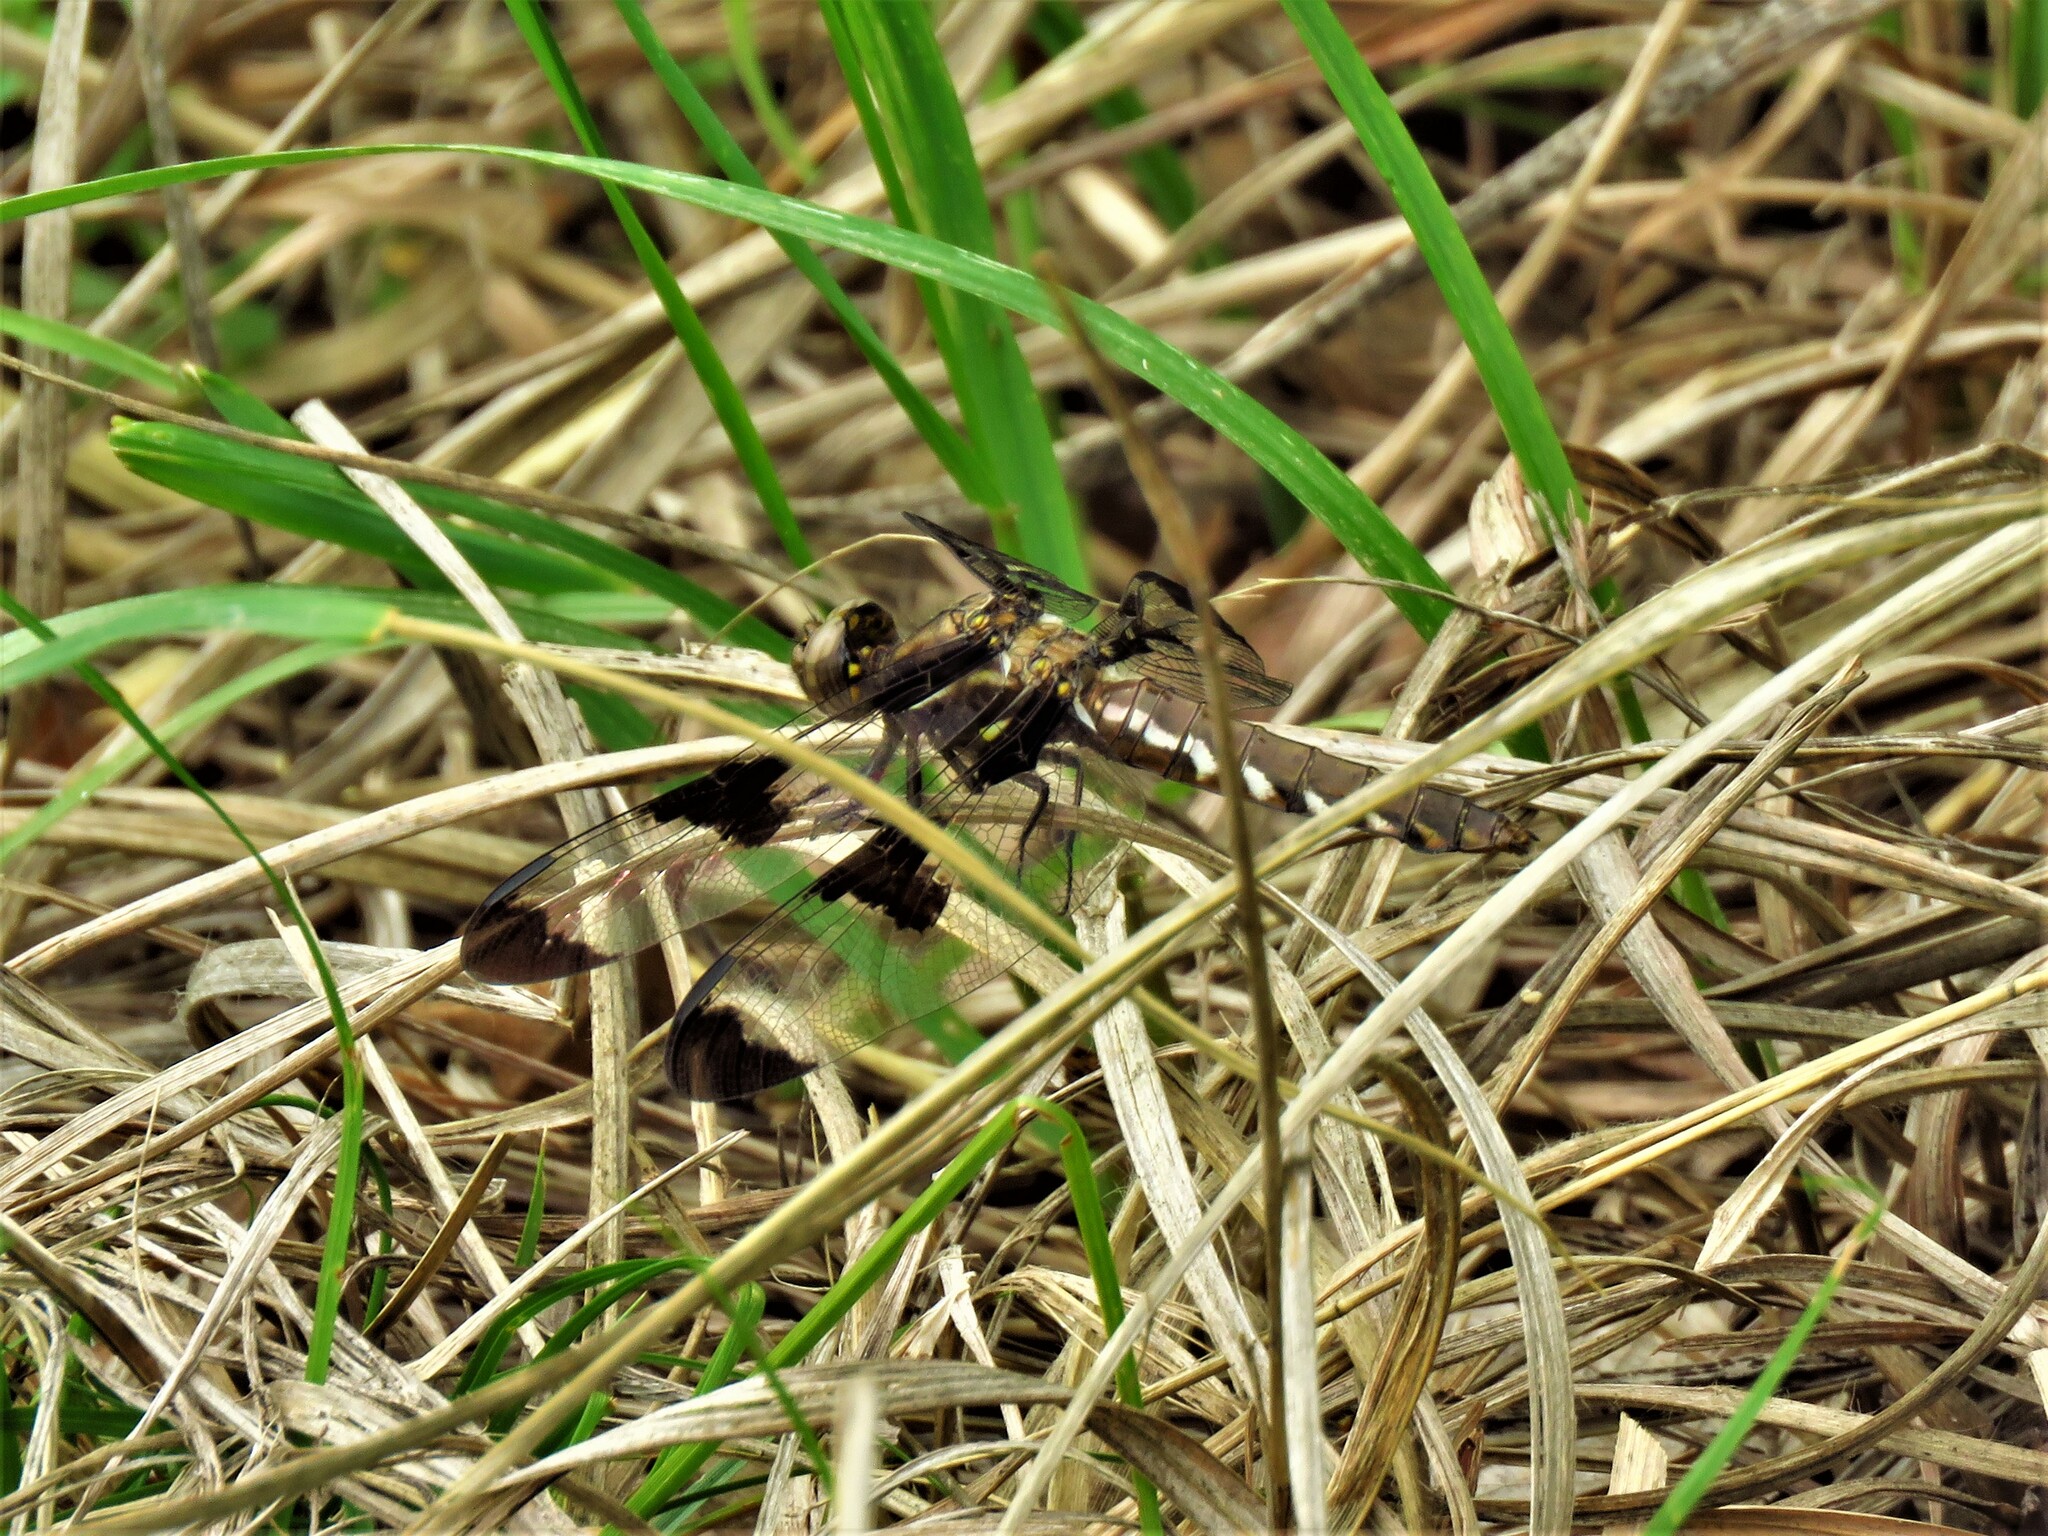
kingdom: Animalia
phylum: Arthropoda
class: Insecta
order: Odonata
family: Libellulidae
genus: Plathemis
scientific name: Plathemis lydia
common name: Common whitetail
